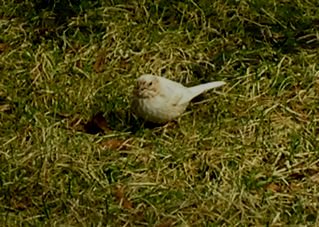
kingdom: Animalia
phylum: Chordata
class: Aves
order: Passeriformes
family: Passerellidae
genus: Melospiza
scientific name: Melospiza melodia
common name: Song sparrow
